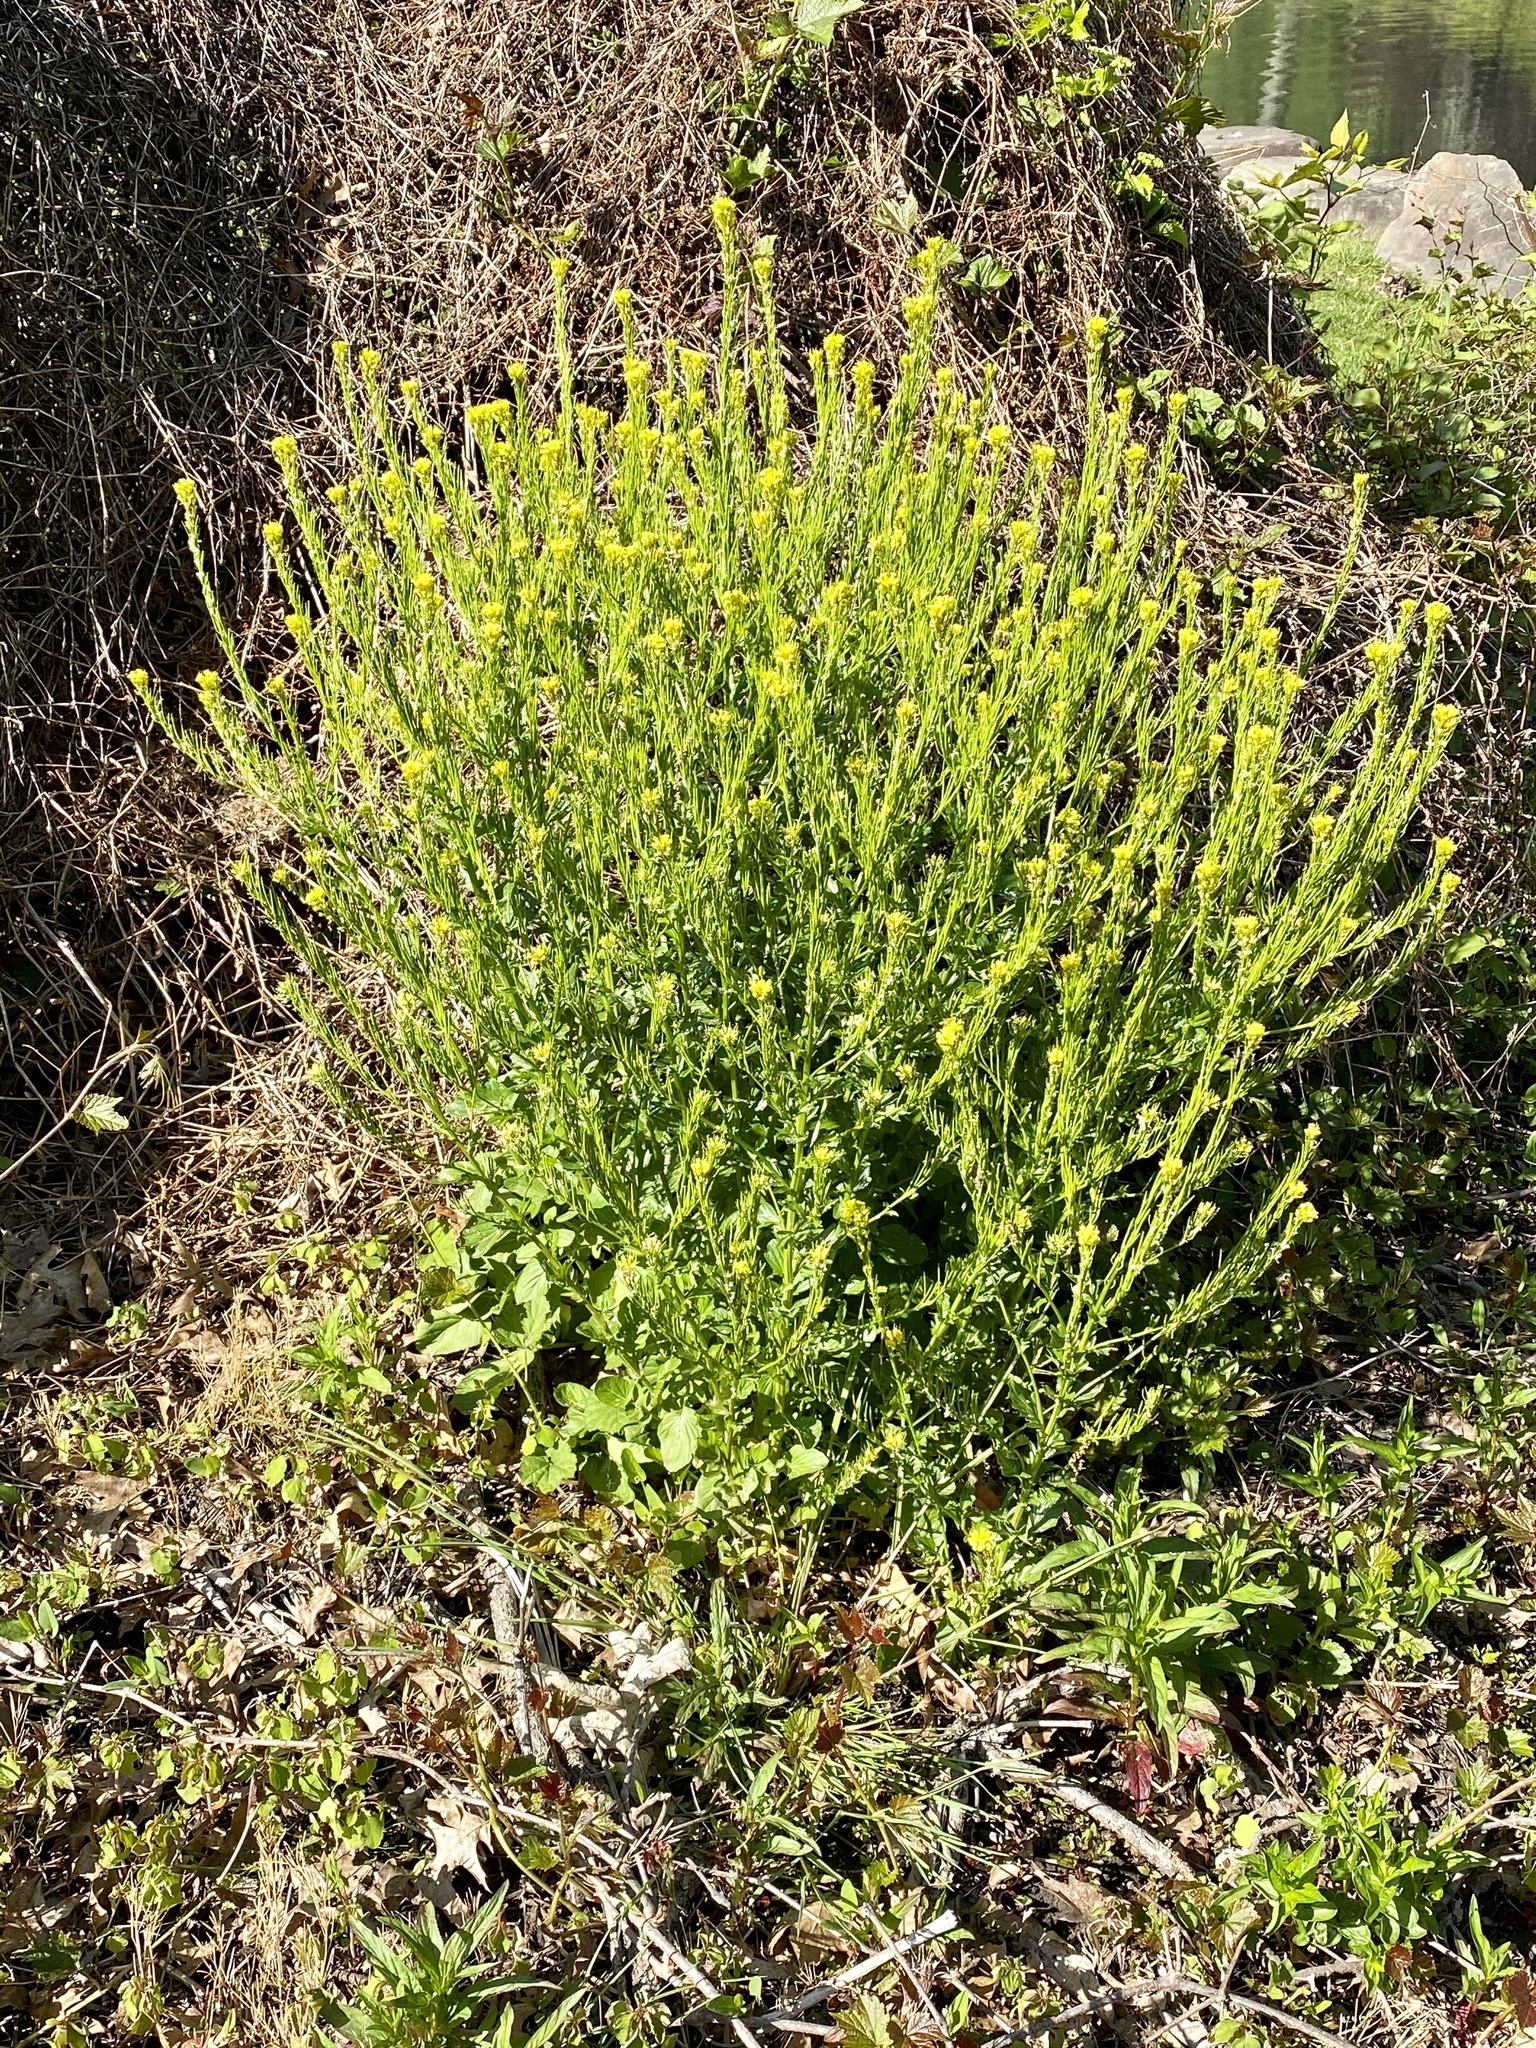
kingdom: Plantae
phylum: Tracheophyta
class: Magnoliopsida
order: Brassicales
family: Brassicaceae
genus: Barbarea
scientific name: Barbarea vulgaris
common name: Cressy-greens
